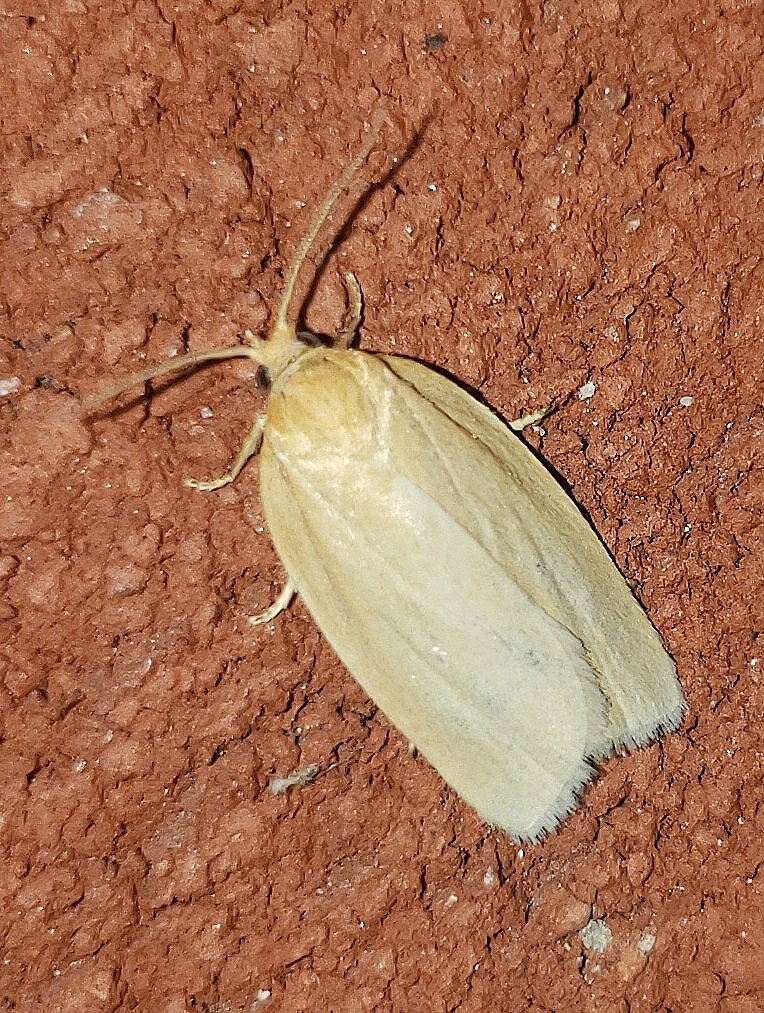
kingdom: Animalia
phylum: Arthropoda
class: Insecta
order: Lepidoptera
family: Tortricidae
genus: Xenotemna
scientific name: Xenotemna pallorana
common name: Pallid leafroller moth
